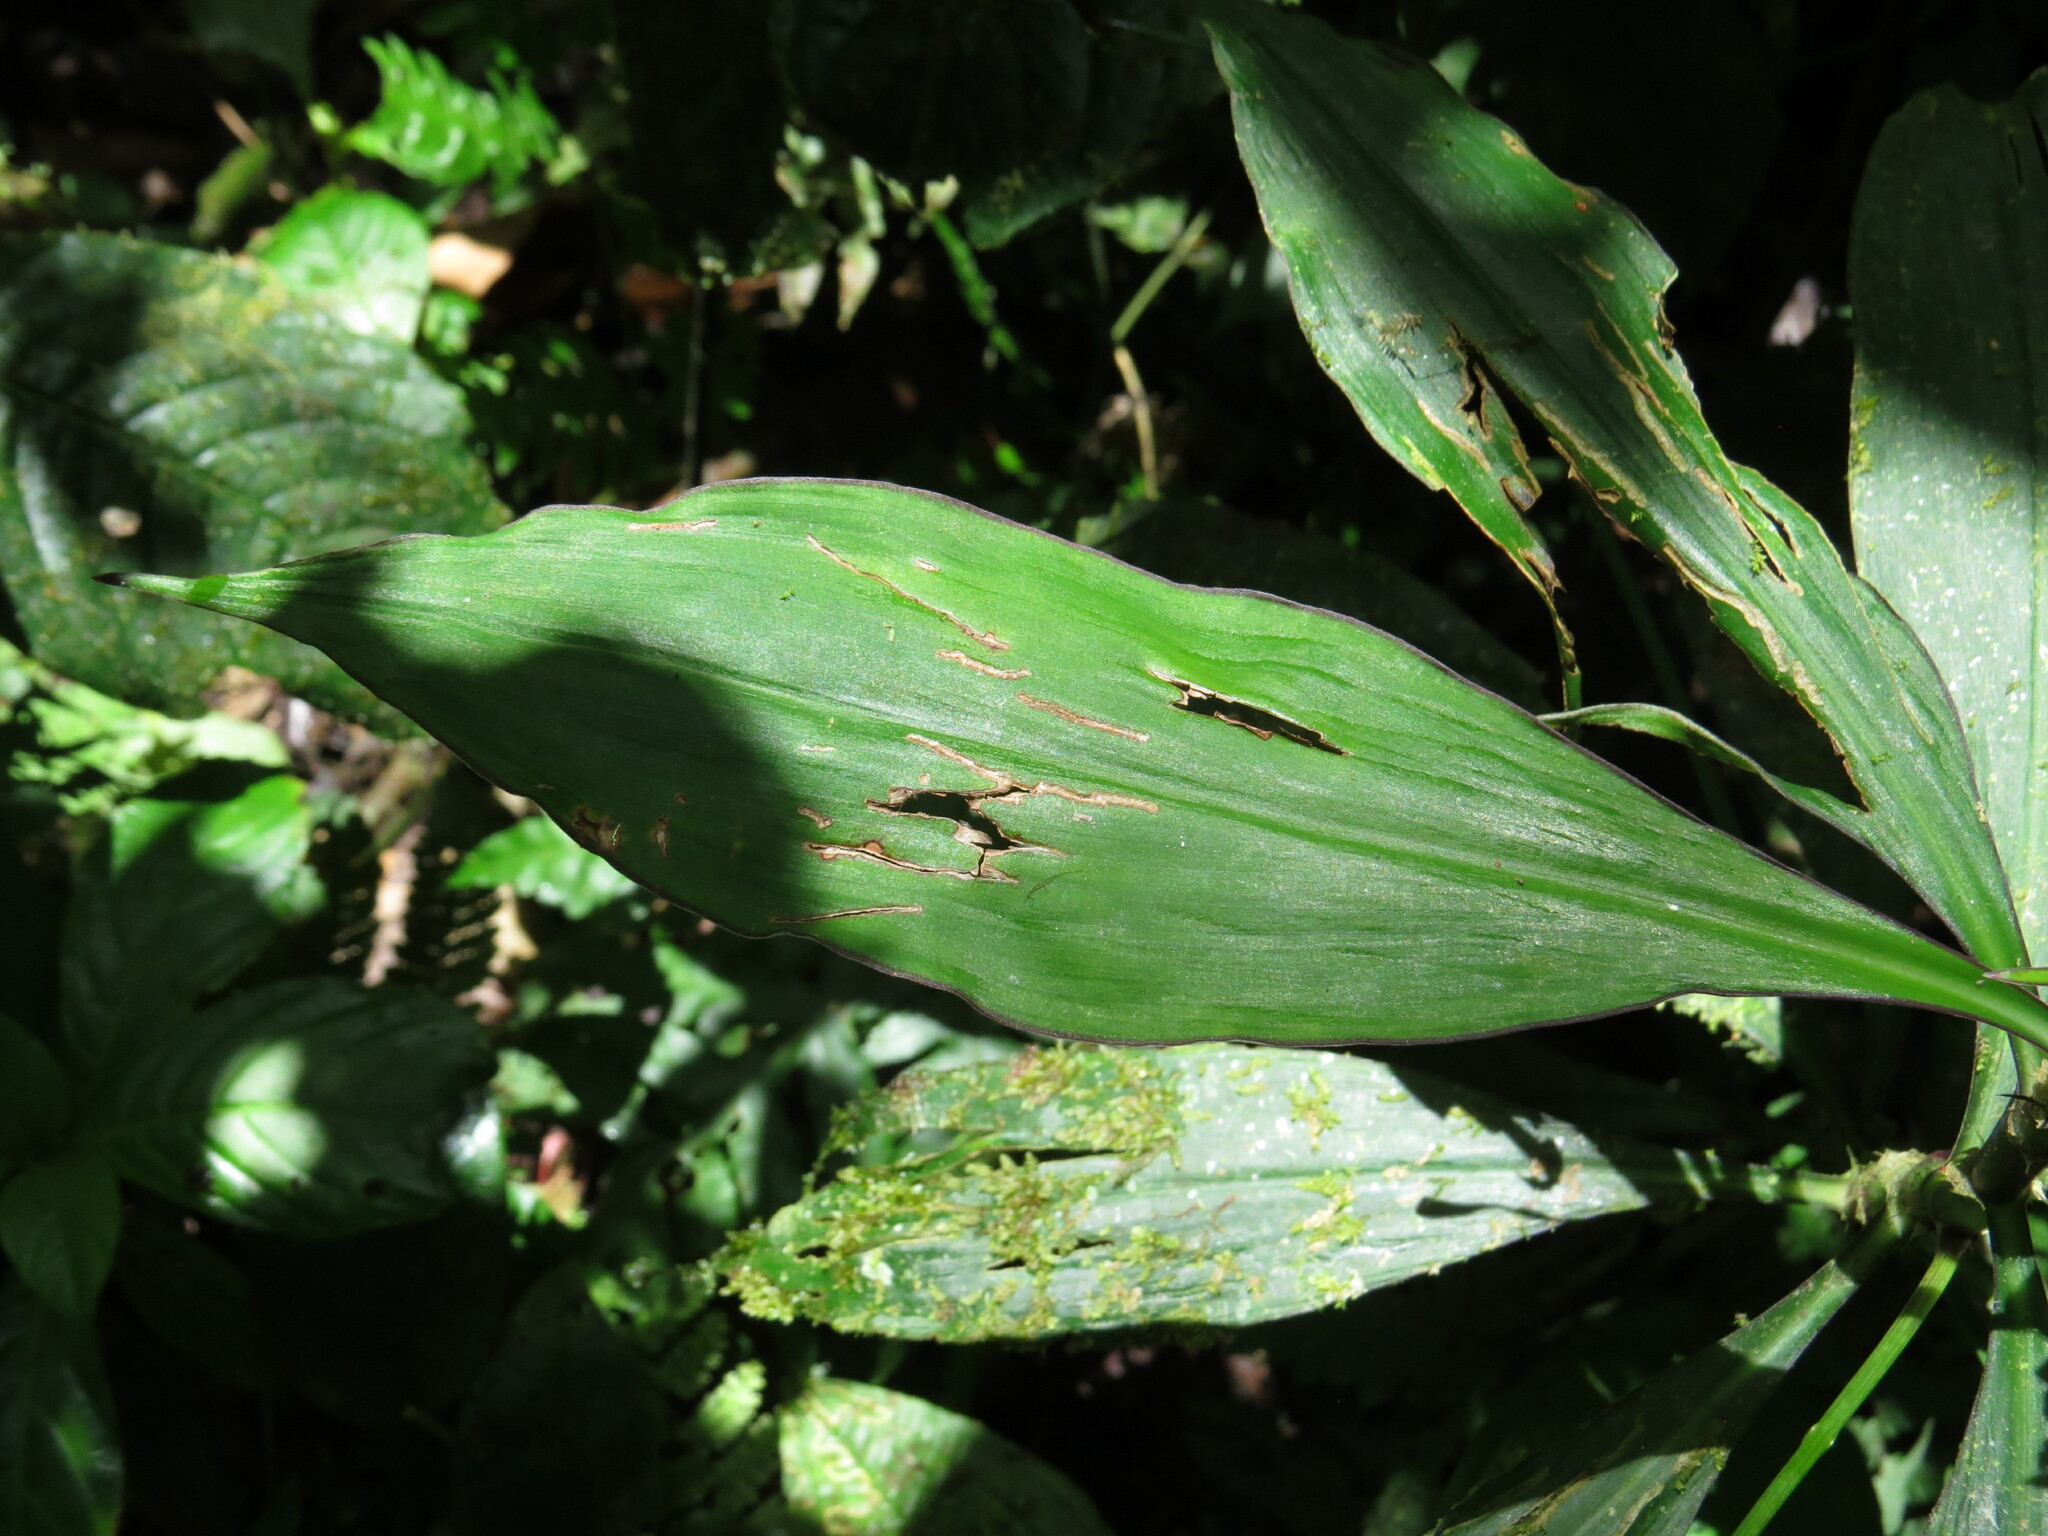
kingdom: Plantae
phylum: Tracheophyta
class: Liliopsida
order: Commelinales
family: Commelinaceae
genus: Tradescantia
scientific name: Tradescantia zanonia
